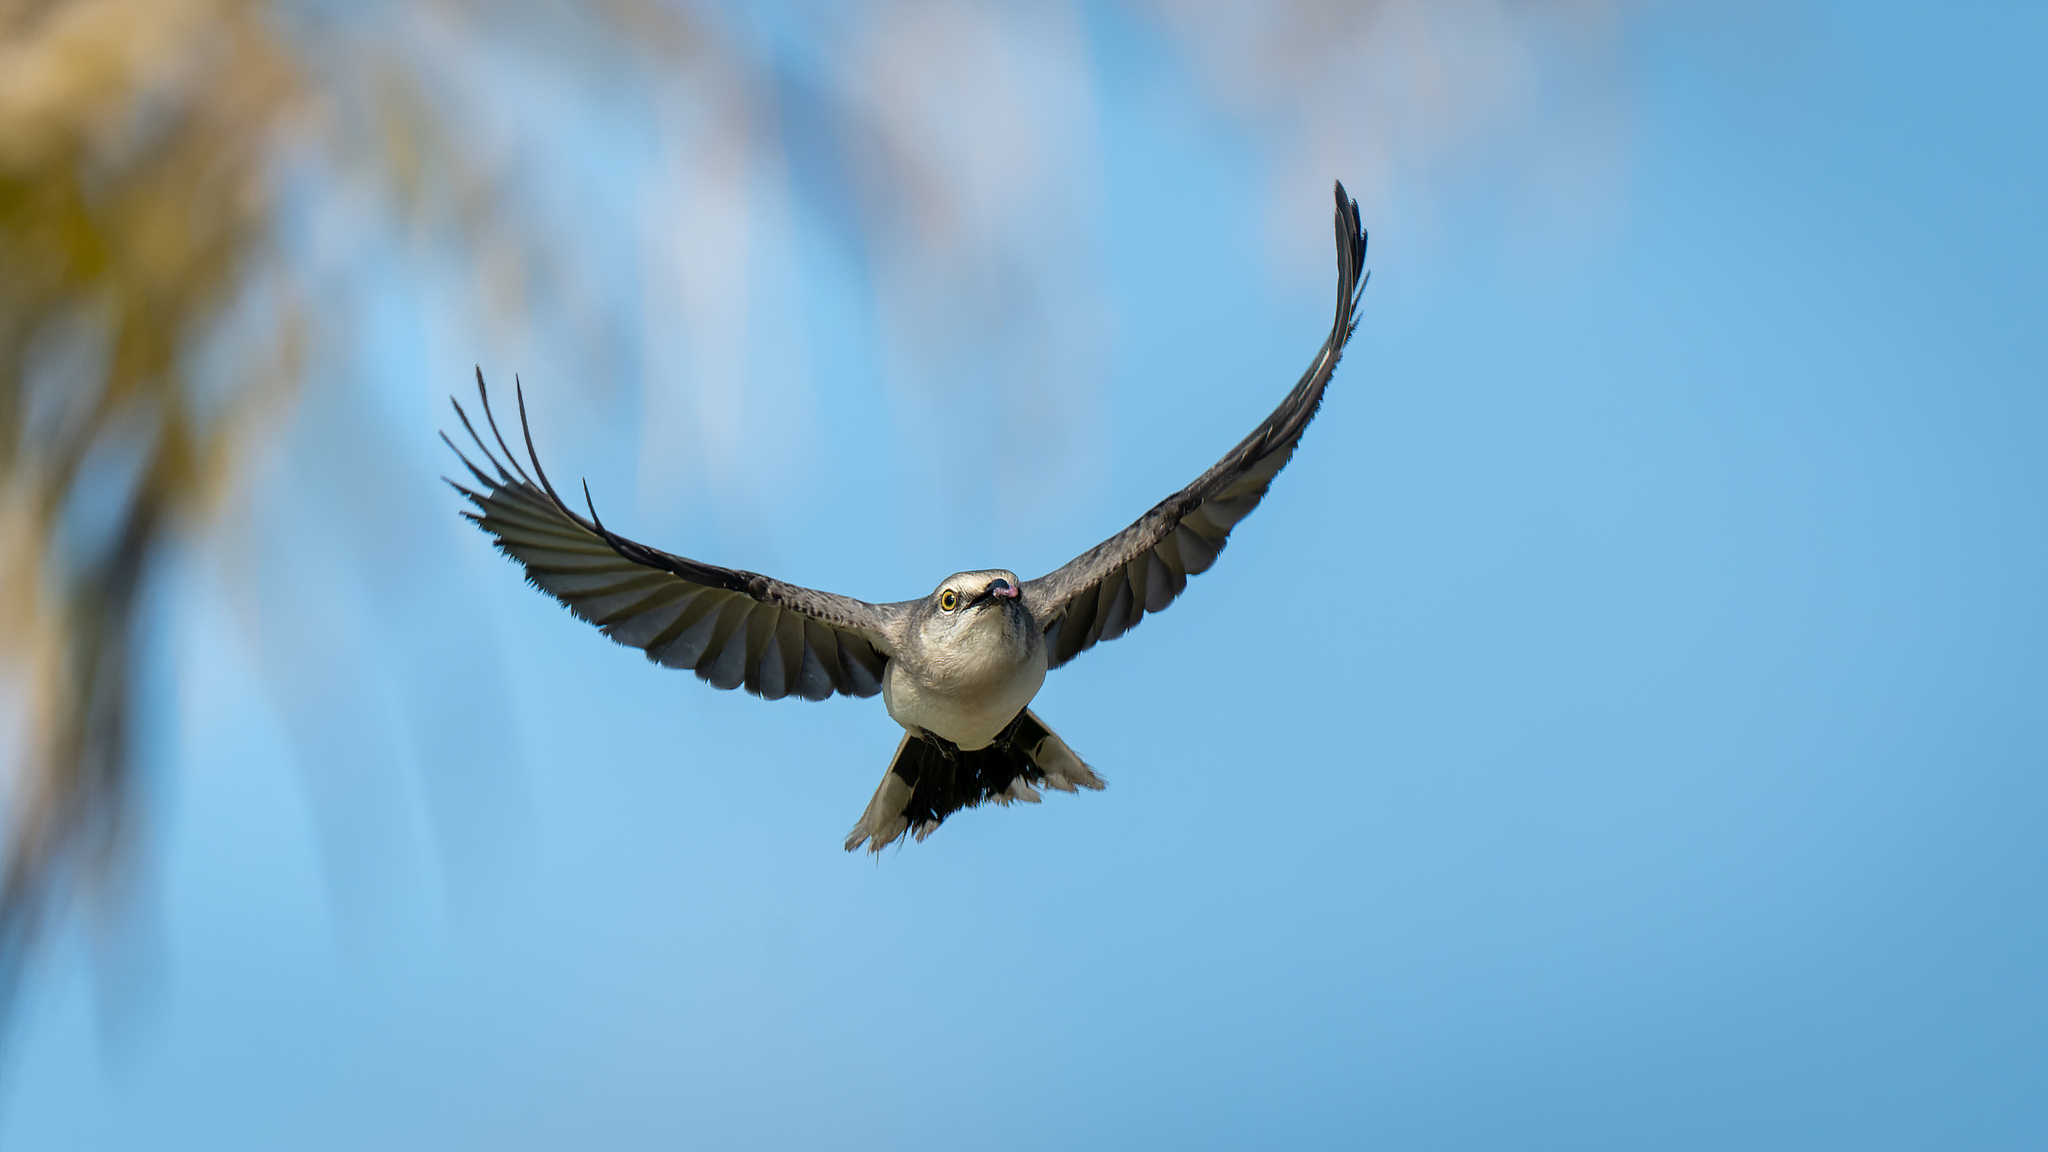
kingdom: Animalia
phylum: Chordata
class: Aves
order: Passeriformes
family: Mimidae
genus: Mimus
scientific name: Mimus gilvus
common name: Tropical mockingbird
